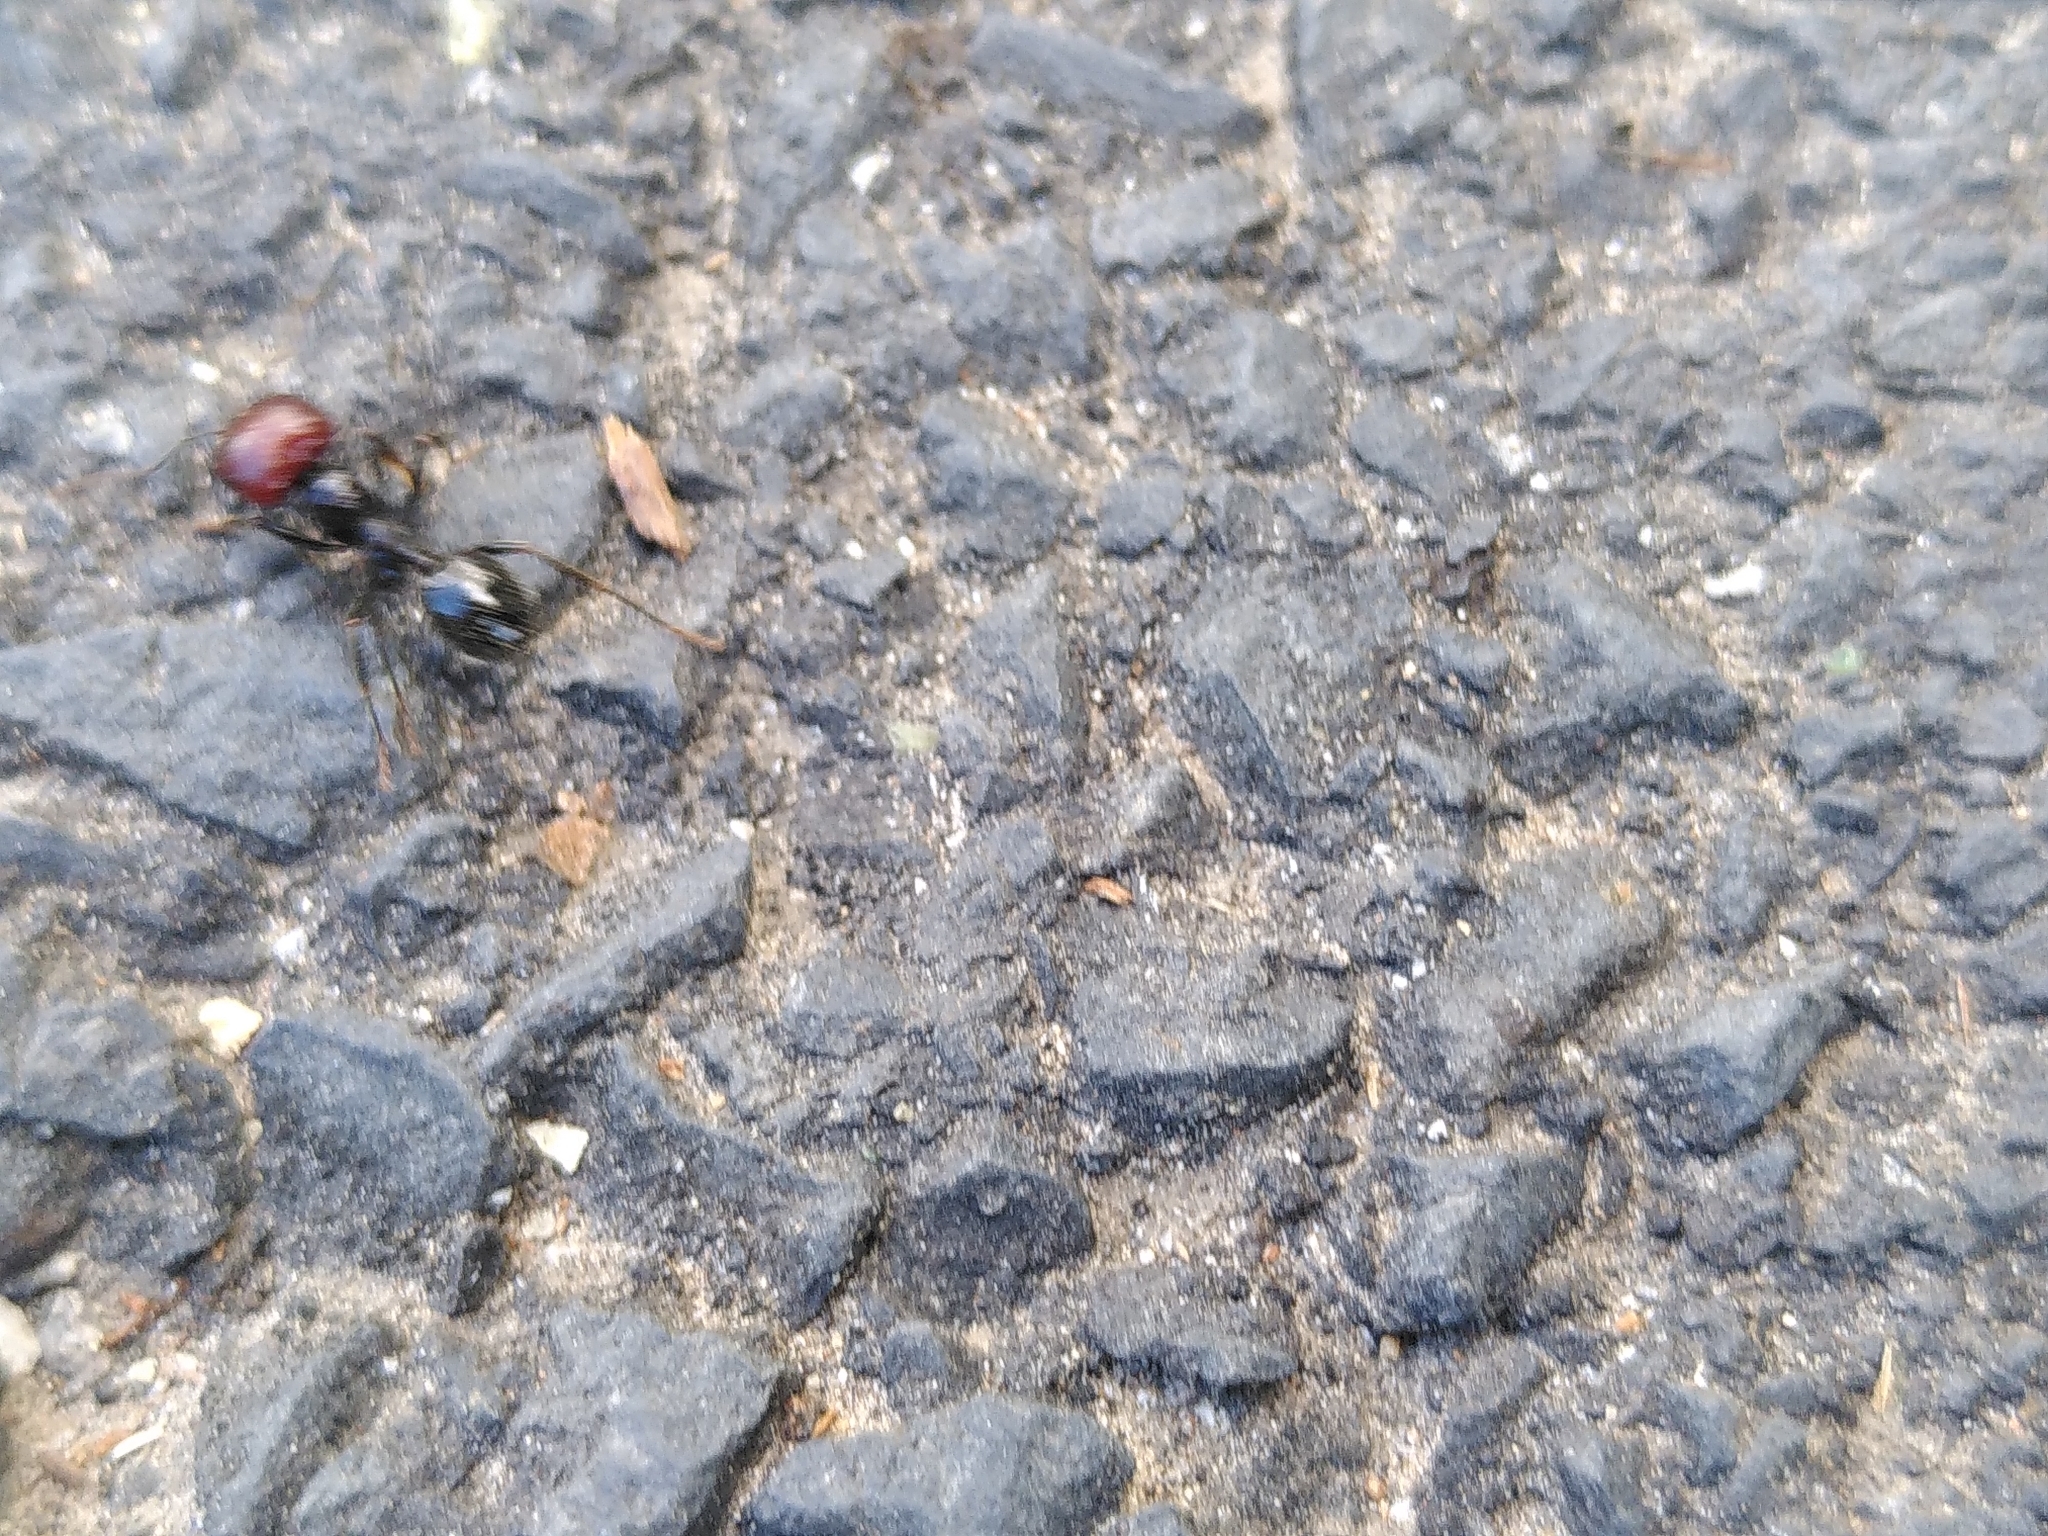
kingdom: Animalia
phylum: Arthropoda
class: Insecta
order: Hymenoptera
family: Formicidae
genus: Messor
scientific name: Messor barbarus
